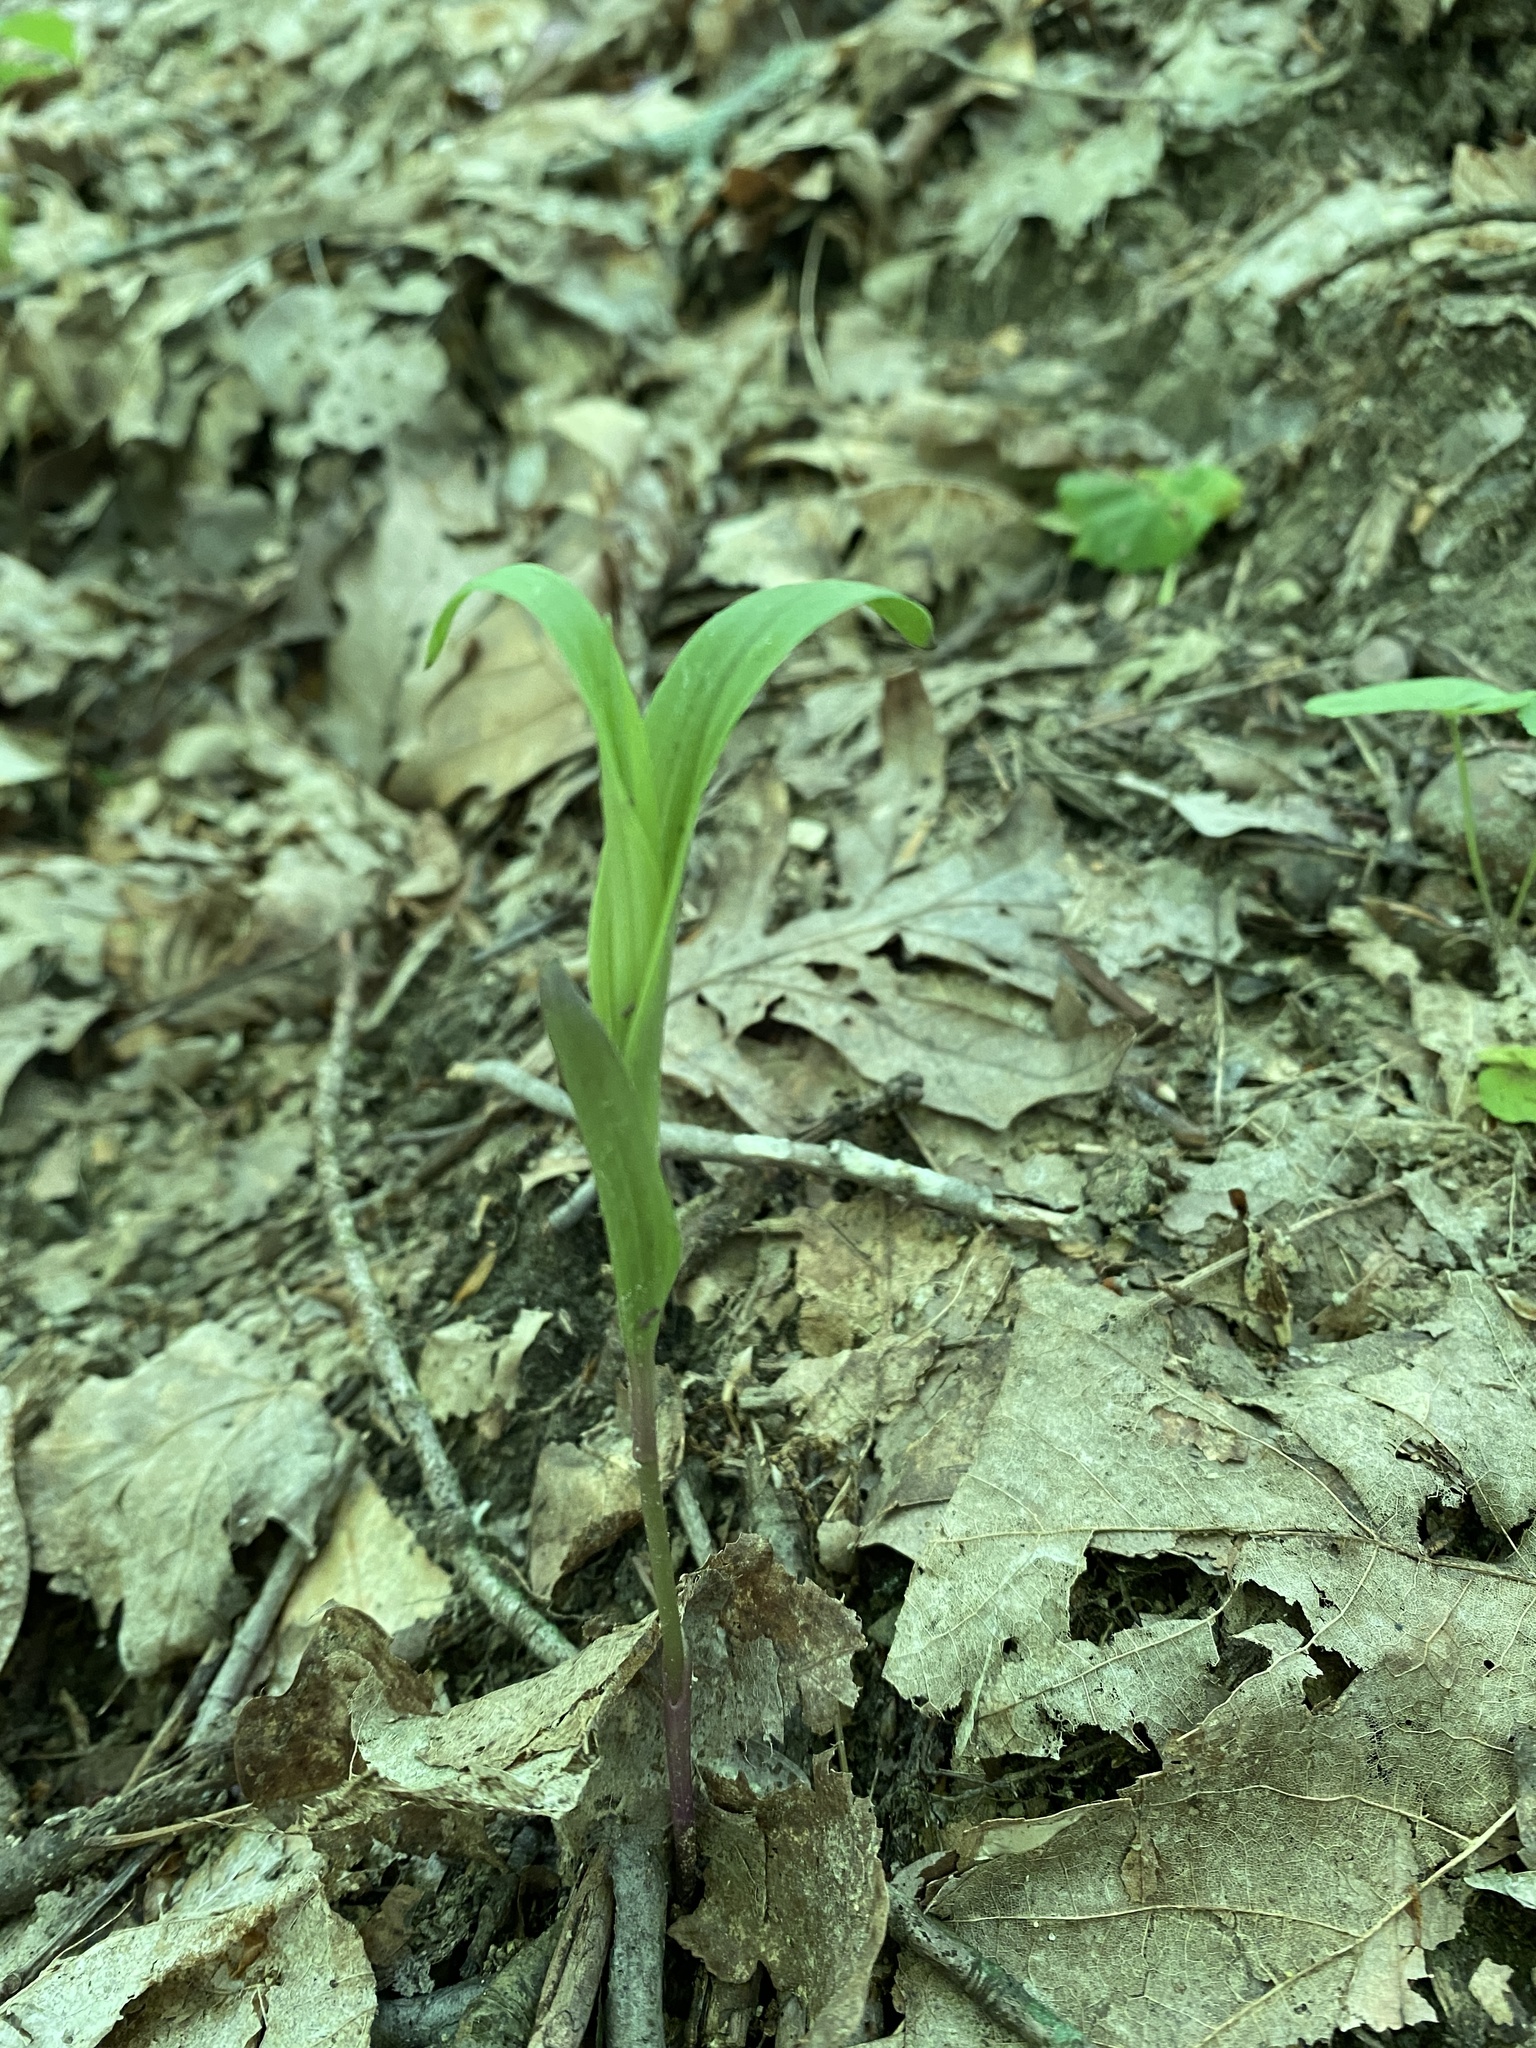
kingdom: Plantae
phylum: Tracheophyta
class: Liliopsida
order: Asparagales
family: Orchidaceae
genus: Epipactis
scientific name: Epipactis helleborine
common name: Broad-leaved helleborine
